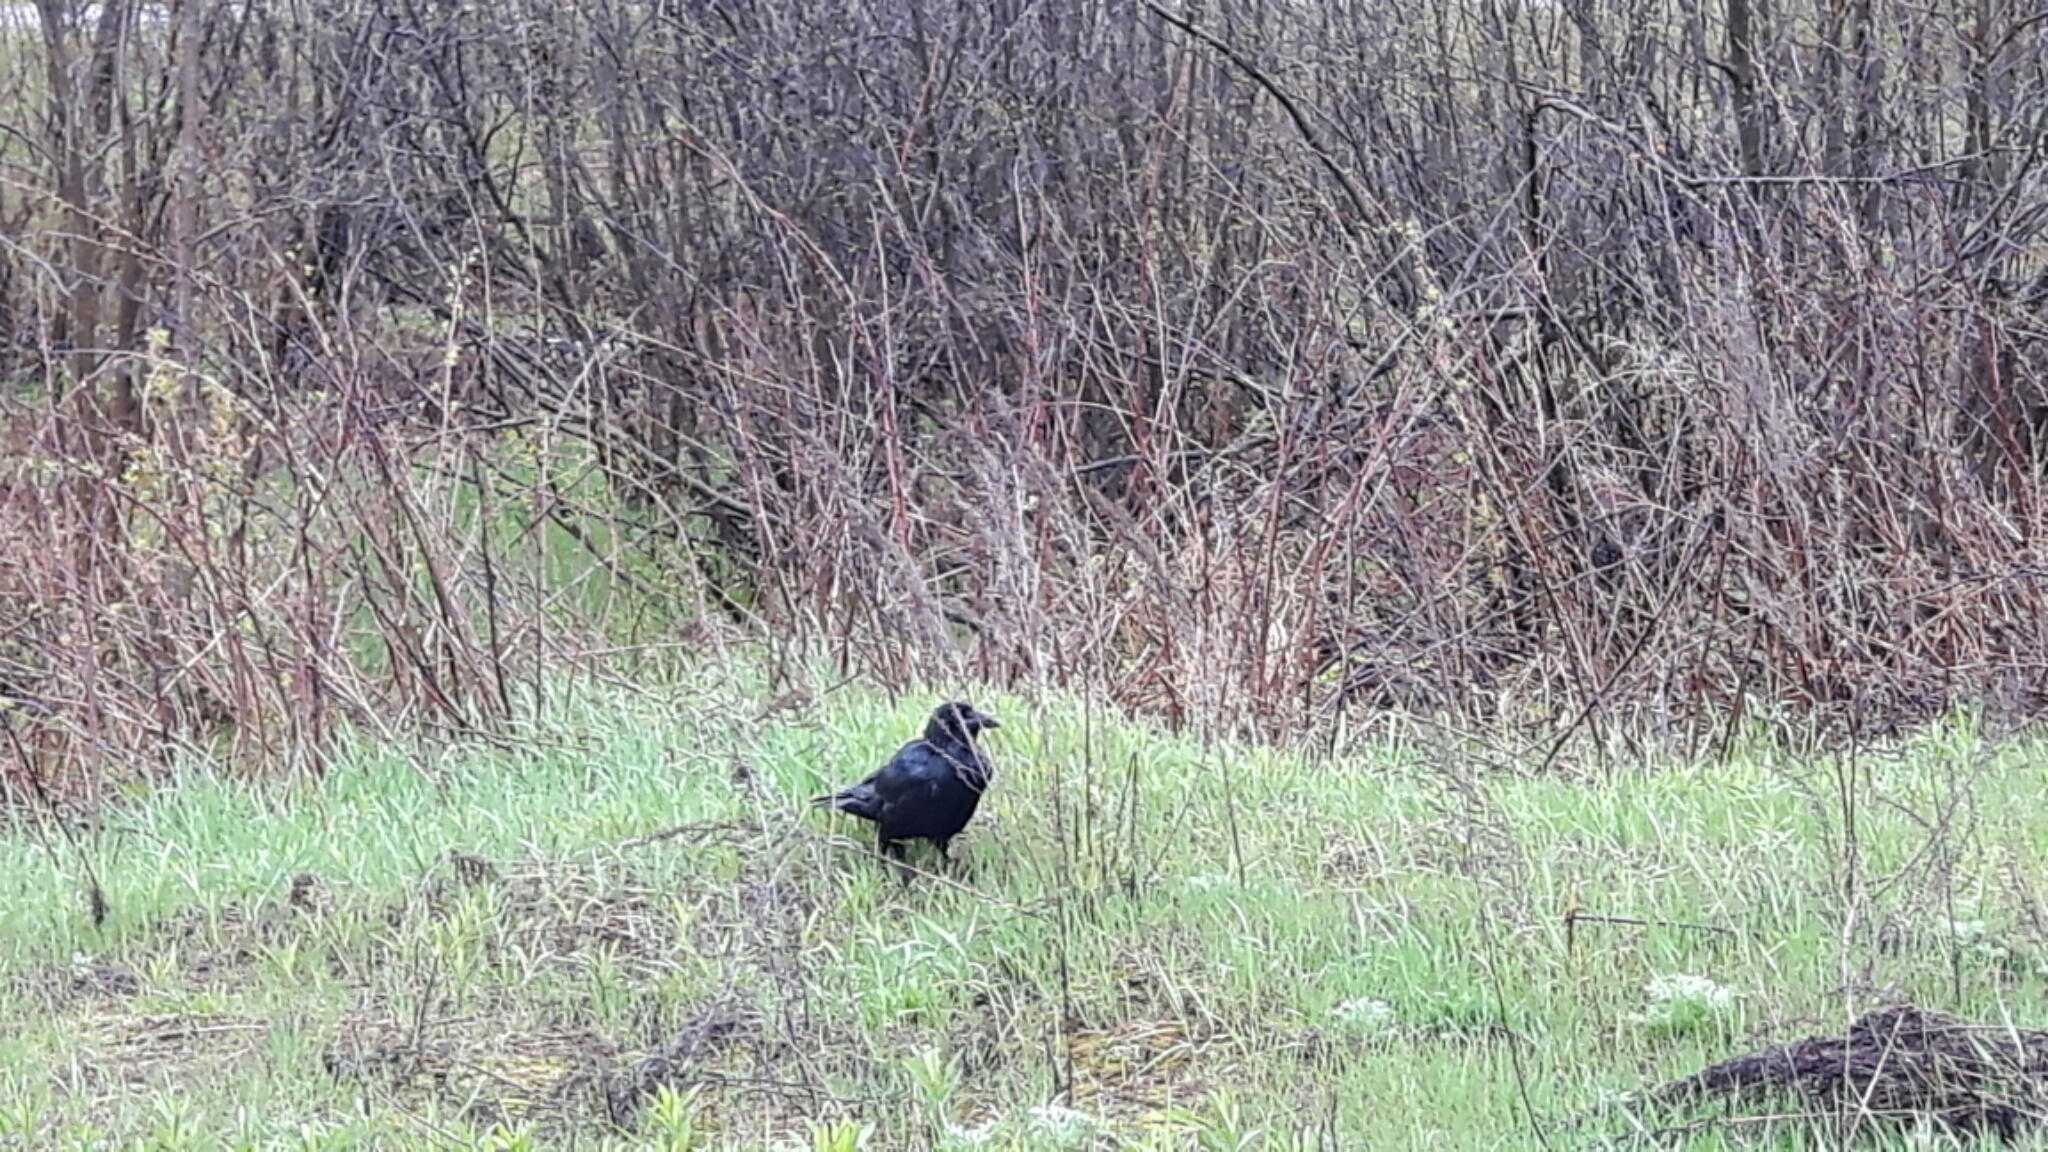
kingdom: Animalia
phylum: Chordata
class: Aves
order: Passeriformes
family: Corvidae
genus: Corvus
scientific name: Corvus corax
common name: Common raven
